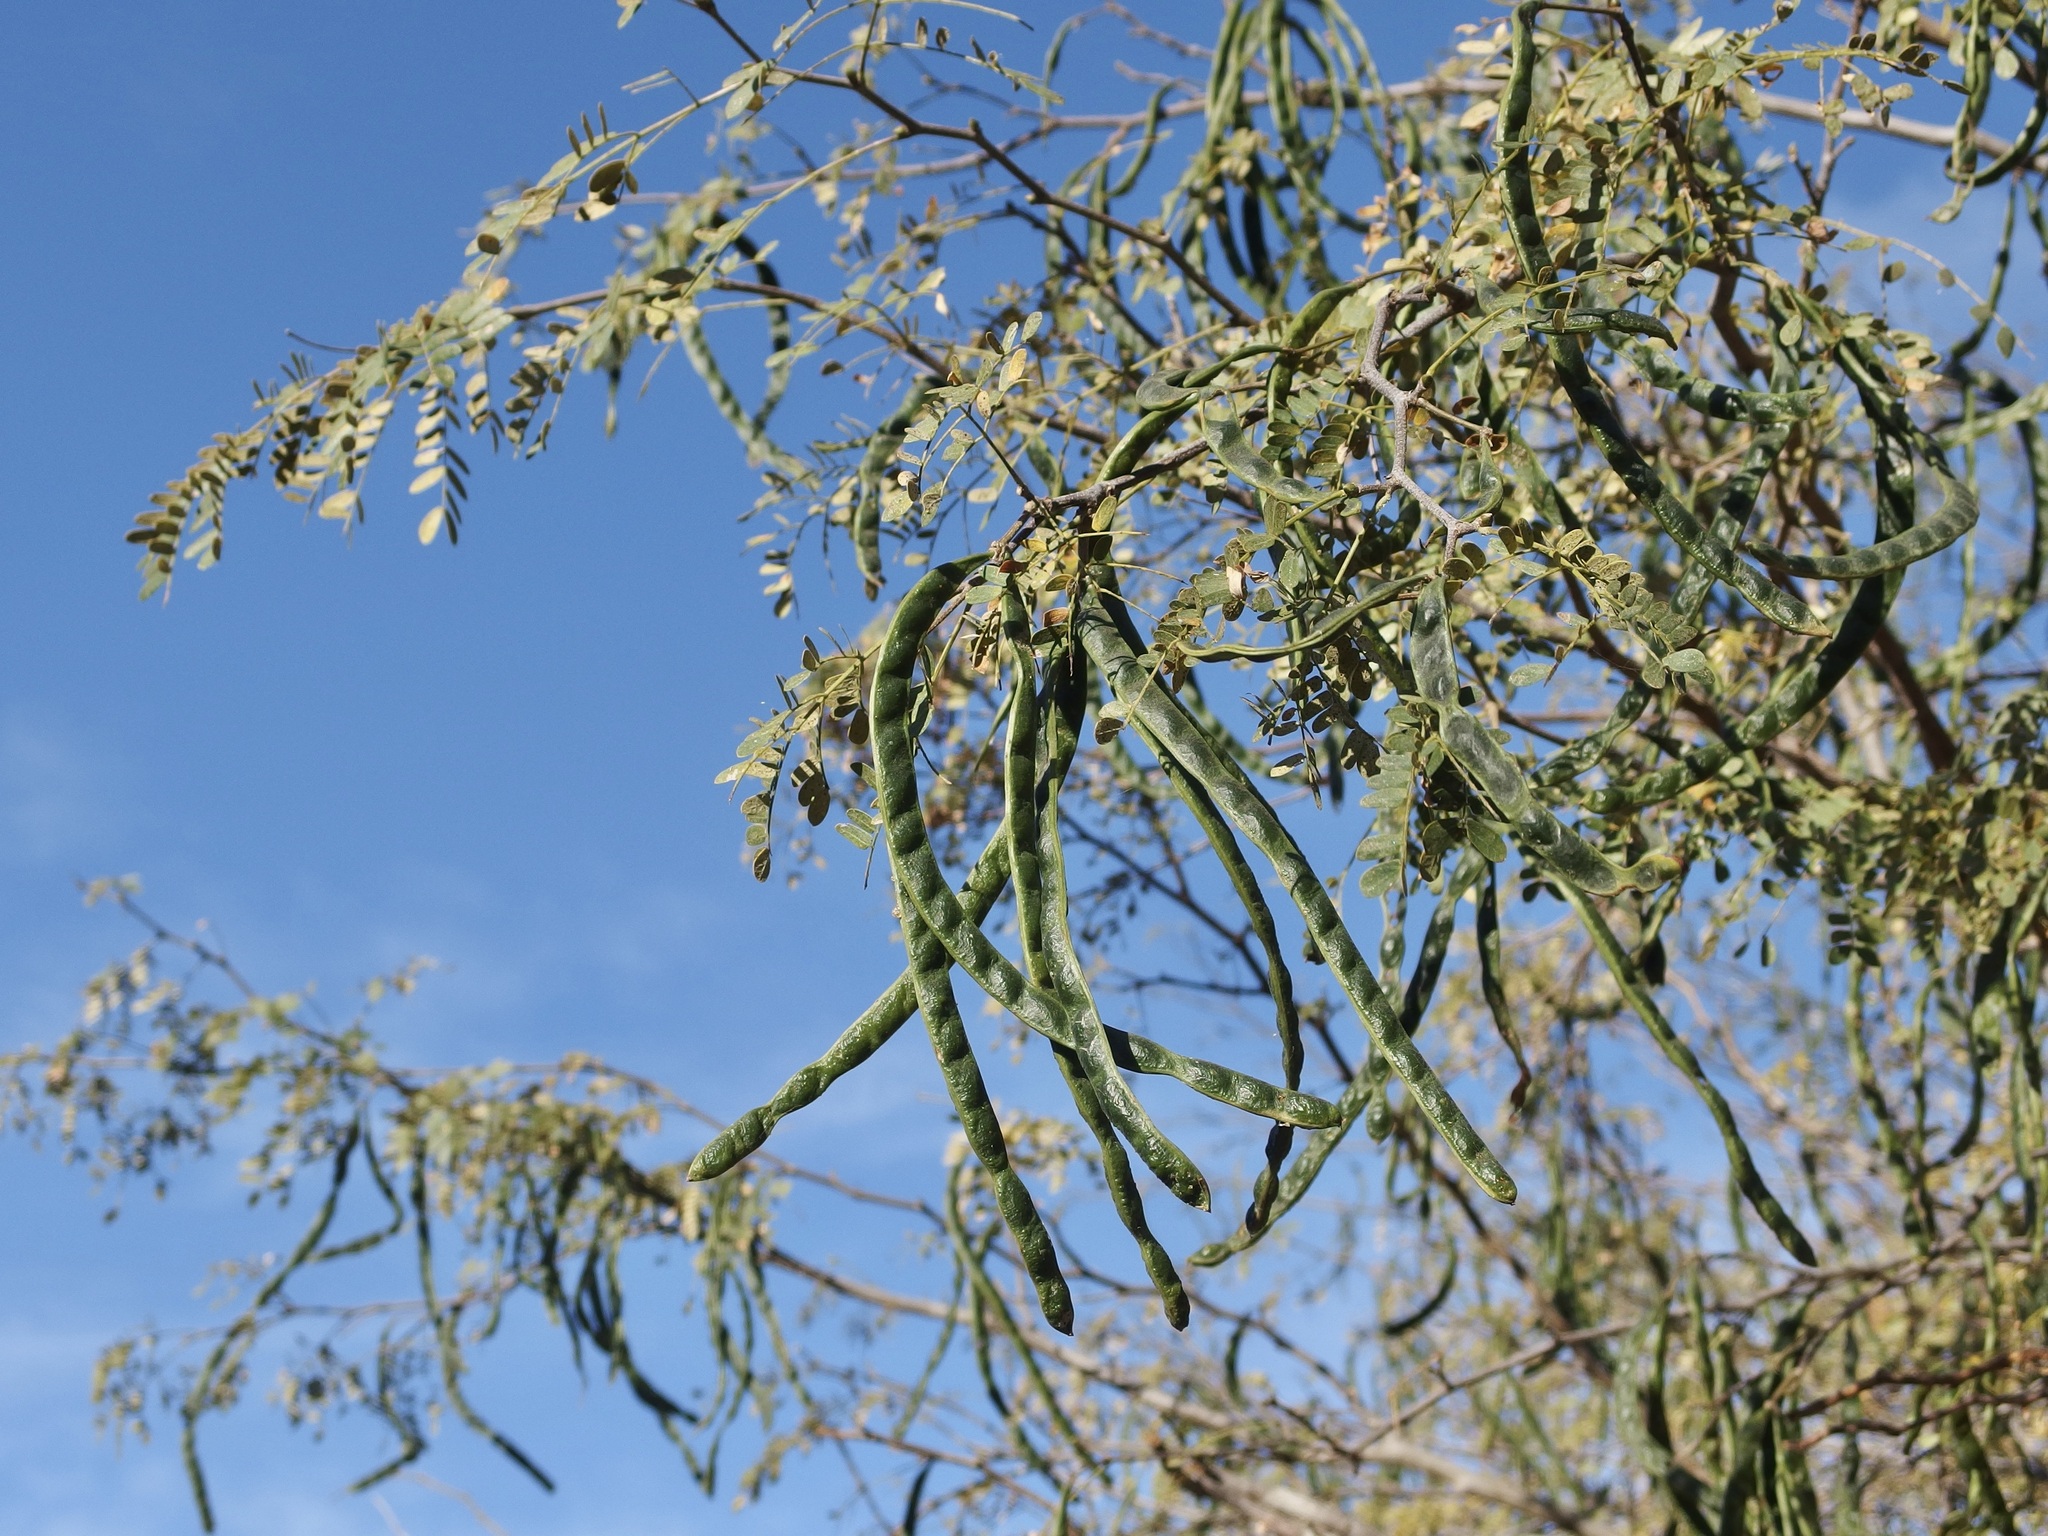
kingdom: Plantae
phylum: Tracheophyta
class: Magnoliopsida
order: Fabales
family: Fabaceae
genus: Chloroleucon
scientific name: Chloroleucon mangense
